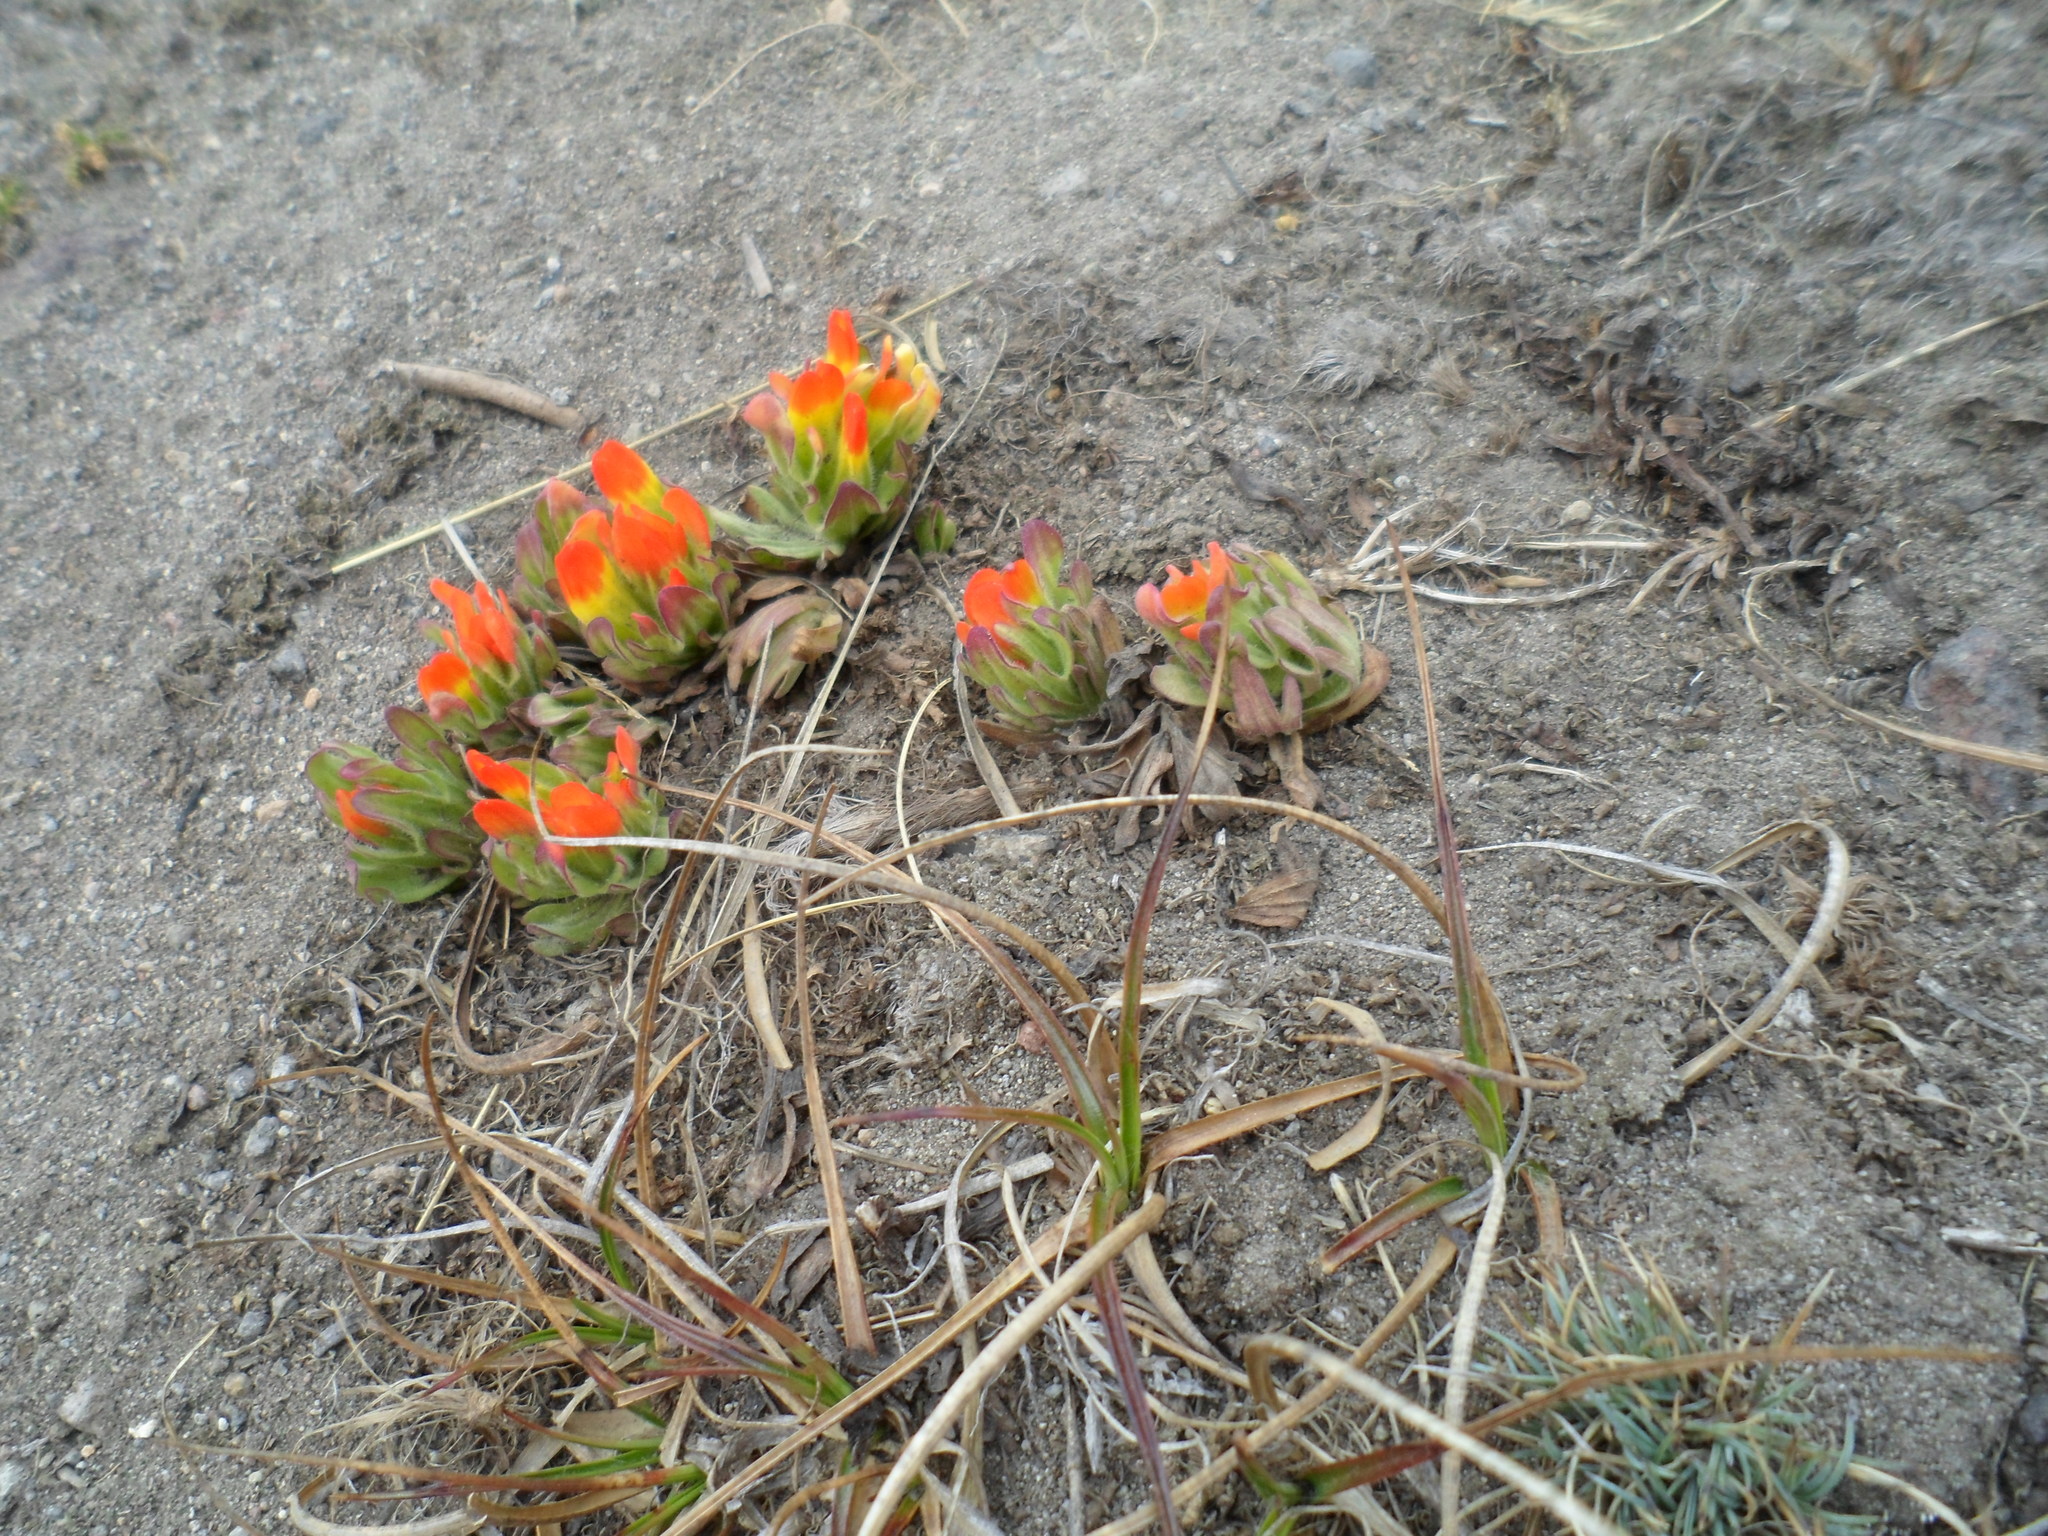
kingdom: Plantae
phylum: Tracheophyta
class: Magnoliopsida
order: Lamiales
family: Orobanchaceae
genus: Castilleja
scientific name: Castilleja tolucensis
